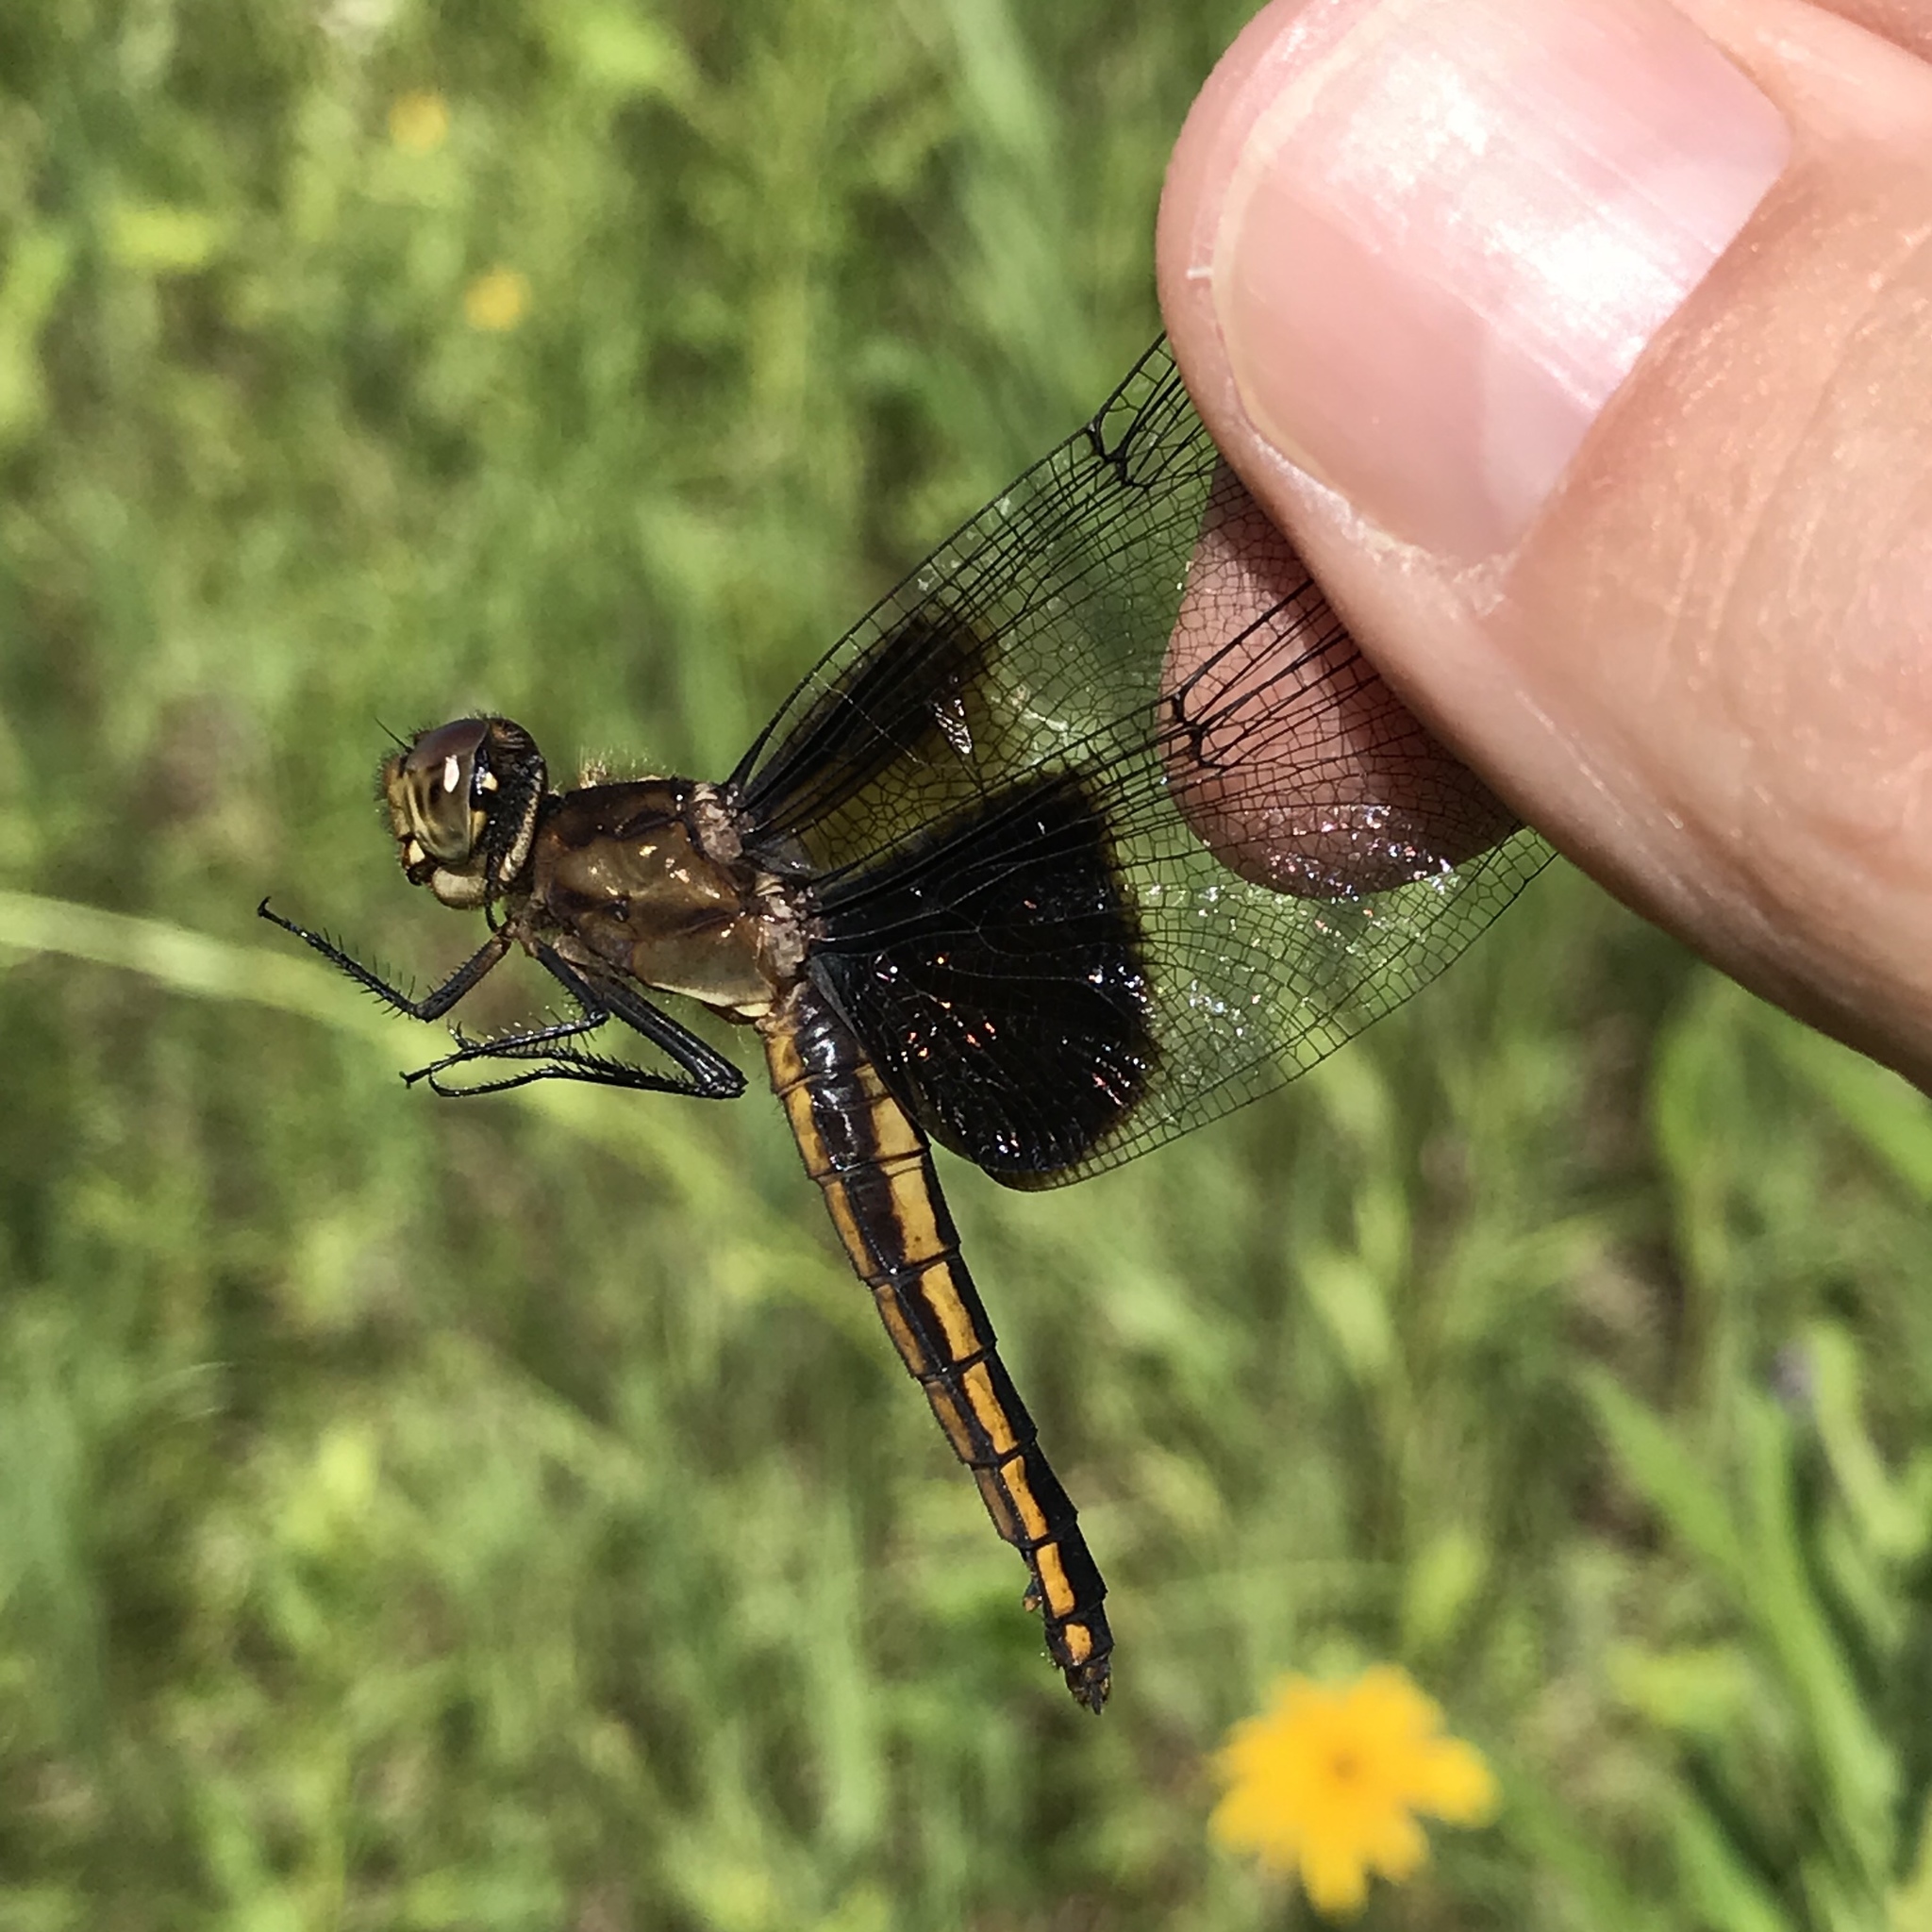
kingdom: Animalia
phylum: Arthropoda
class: Insecta
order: Odonata
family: Libellulidae
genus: Libellula
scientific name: Libellula luctuosa
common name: Widow skimmer
